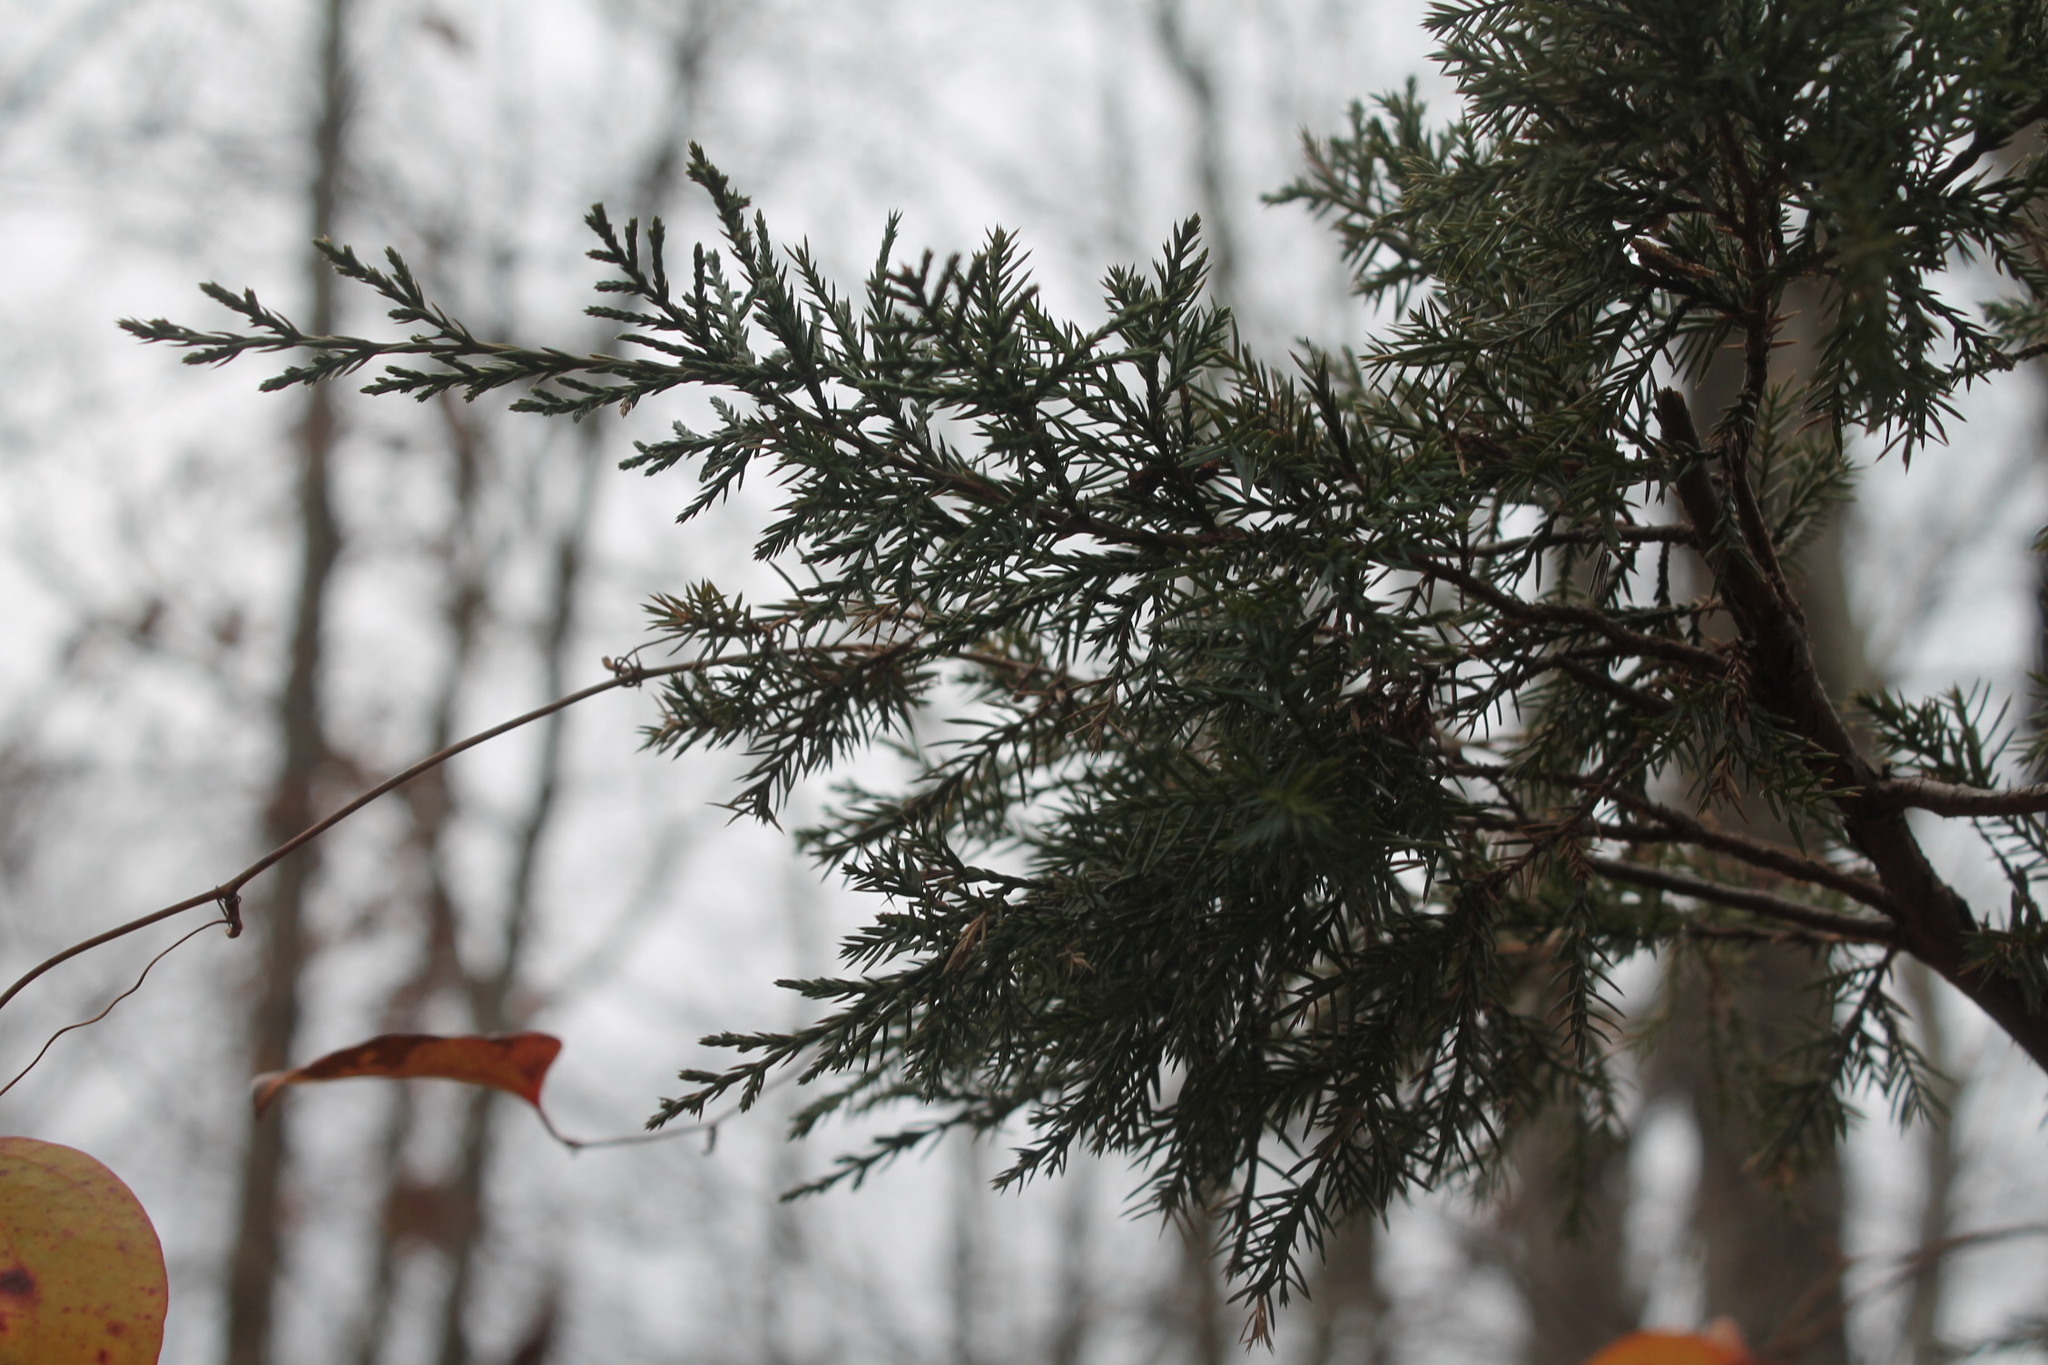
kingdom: Plantae
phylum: Tracheophyta
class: Pinopsida
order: Pinales
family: Cupressaceae
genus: Juniperus
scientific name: Juniperus virginiana
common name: Red juniper
